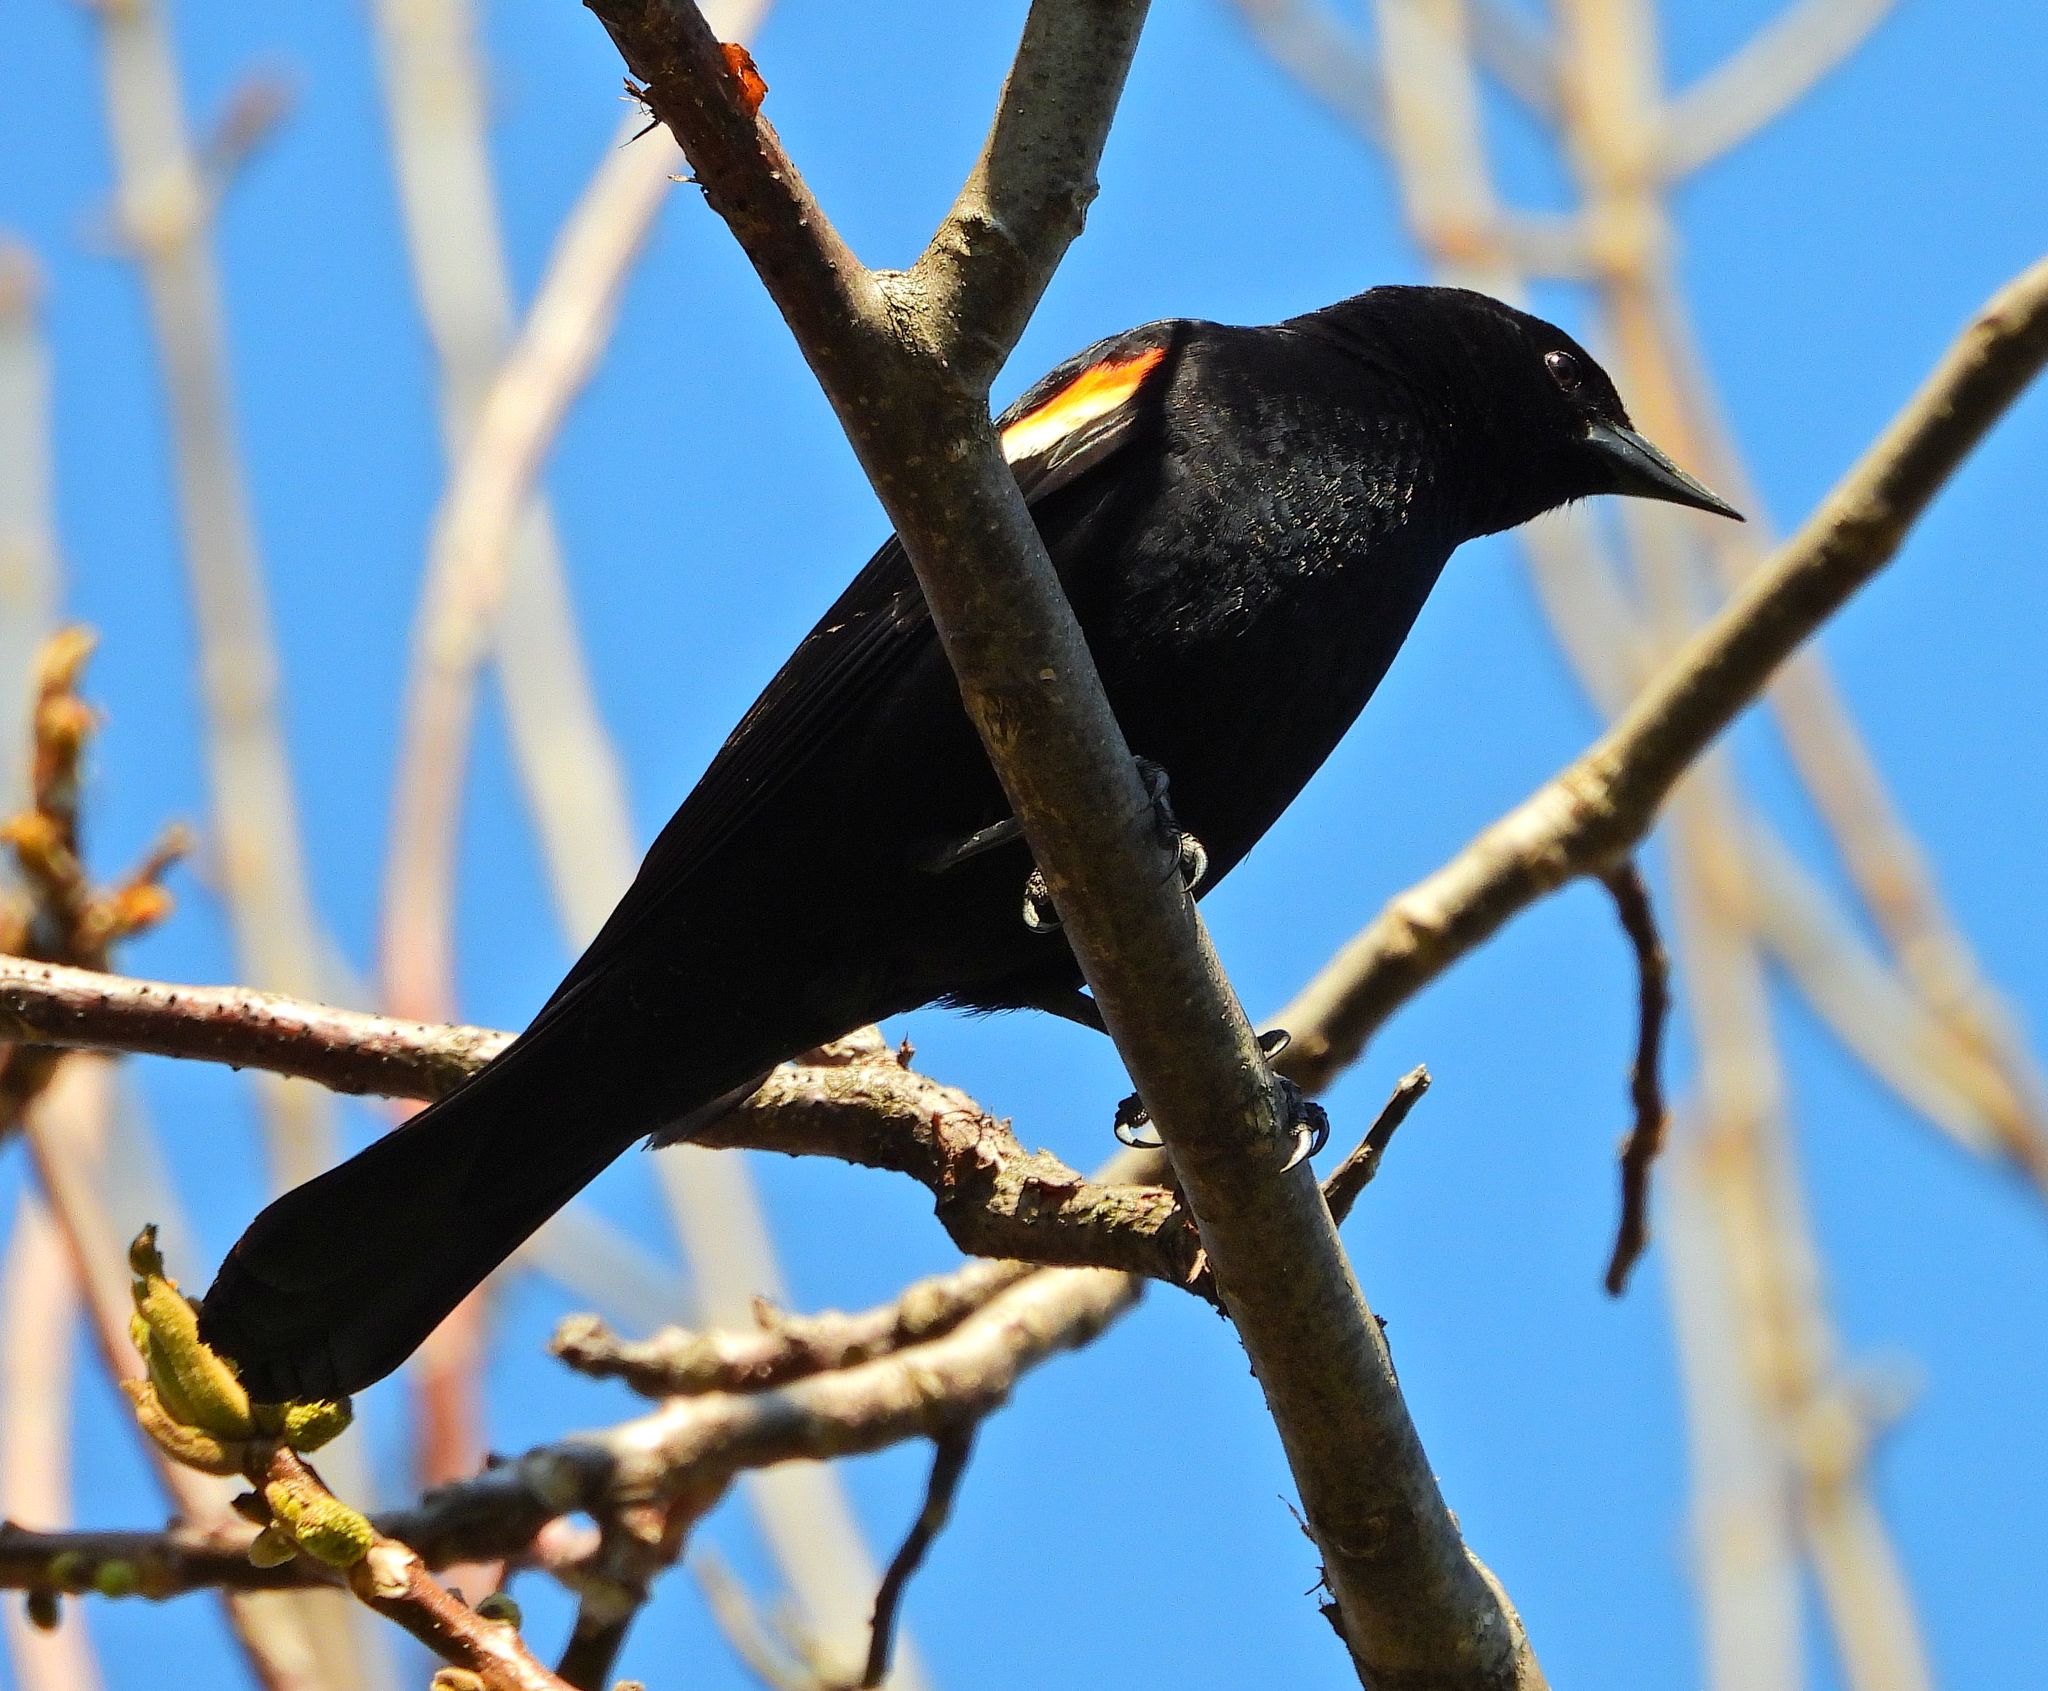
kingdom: Animalia
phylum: Chordata
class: Aves
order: Passeriformes
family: Icteridae
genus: Agelaius
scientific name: Agelaius phoeniceus
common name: Red-winged blackbird
